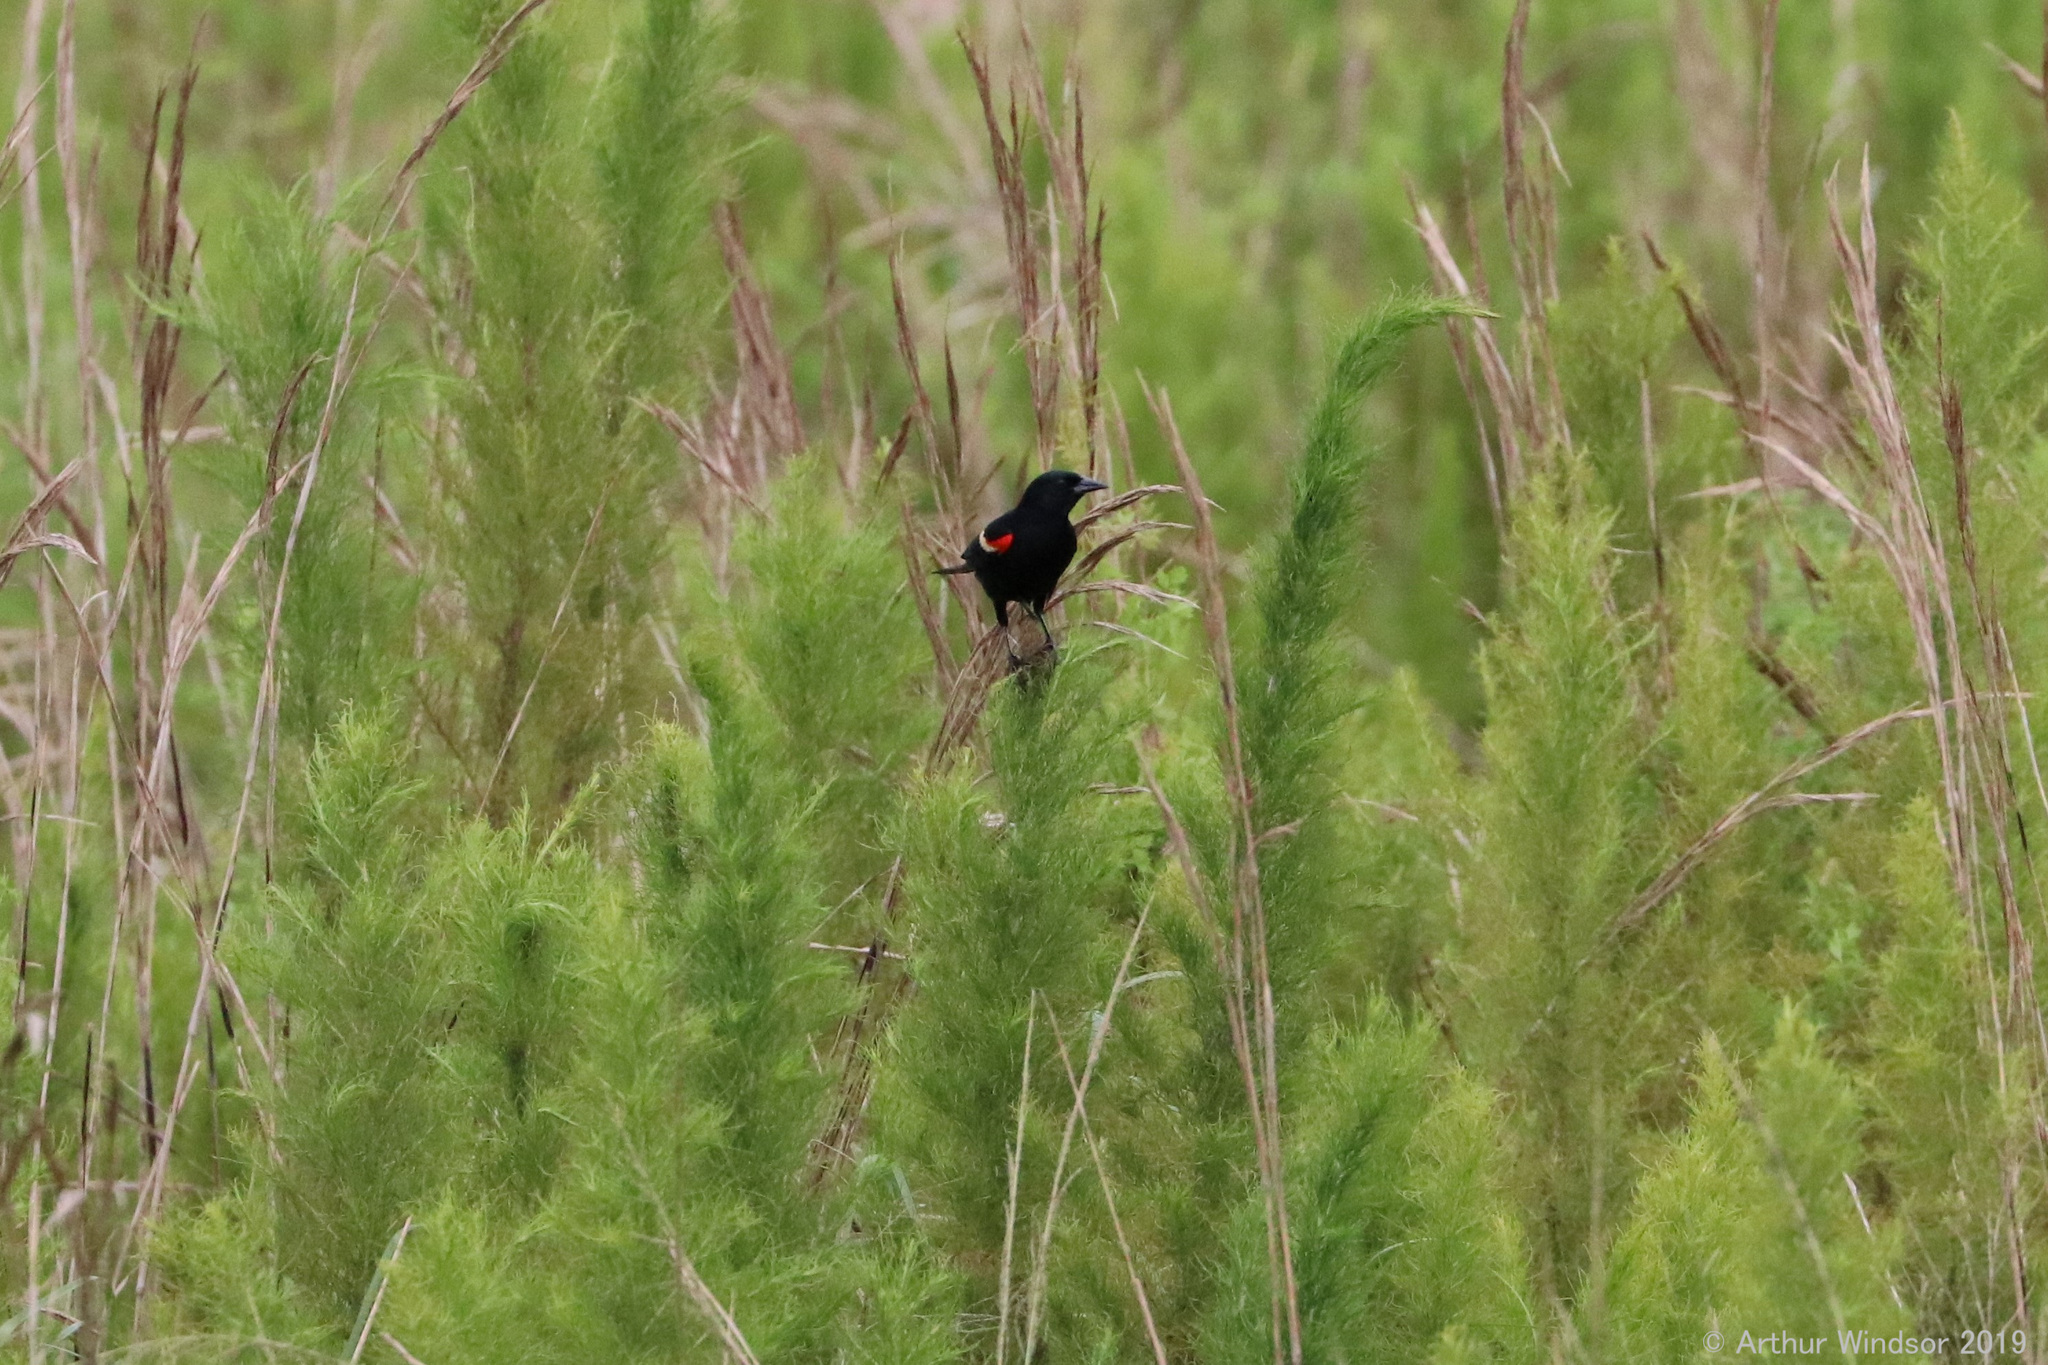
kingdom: Animalia
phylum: Chordata
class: Aves
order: Passeriformes
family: Icteridae
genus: Agelaius
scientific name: Agelaius phoeniceus
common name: Red-winged blackbird
